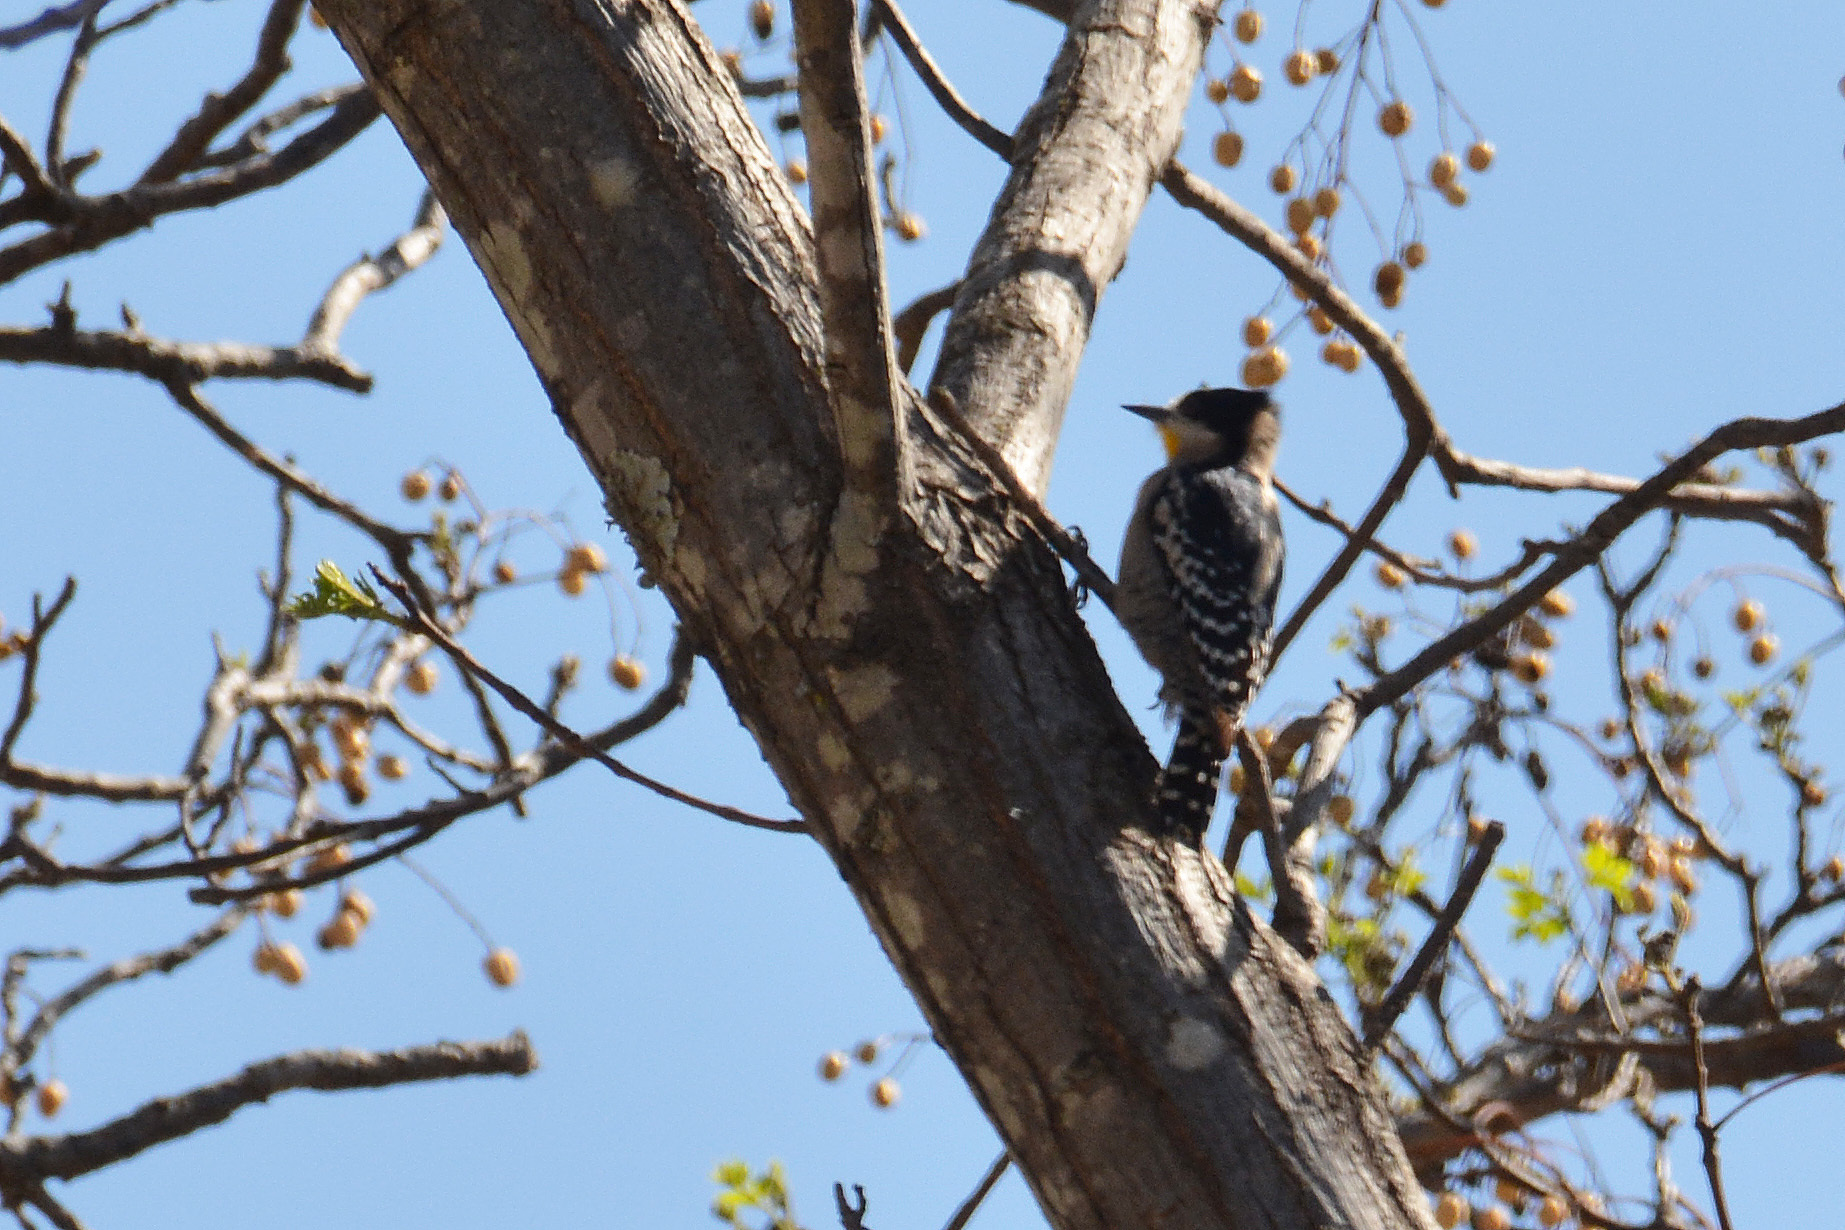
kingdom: Animalia
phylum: Chordata
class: Aves
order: Piciformes
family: Picidae
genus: Melanerpes
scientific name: Melanerpes cactorum
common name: White-fronted woodpecker
